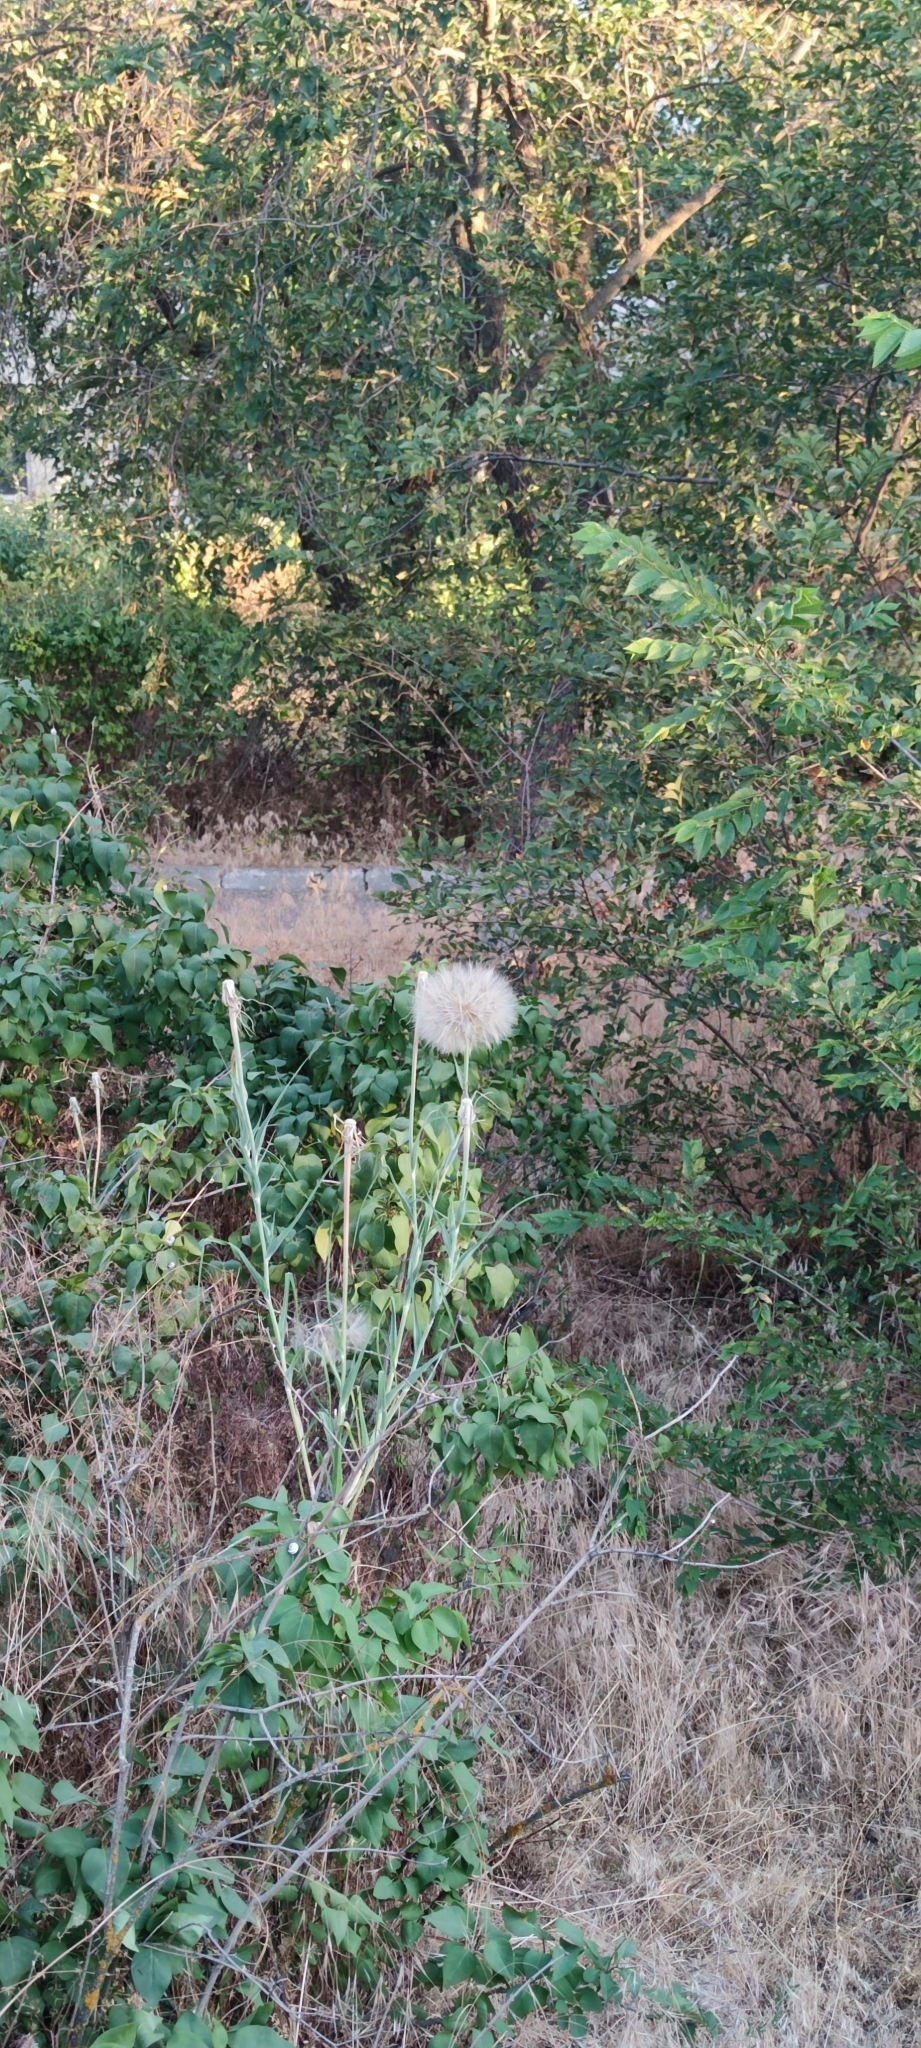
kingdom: Plantae
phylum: Tracheophyta
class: Magnoliopsida
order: Asterales
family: Asteraceae
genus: Tragopogon
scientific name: Tragopogon dubius
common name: Yellow salsify
